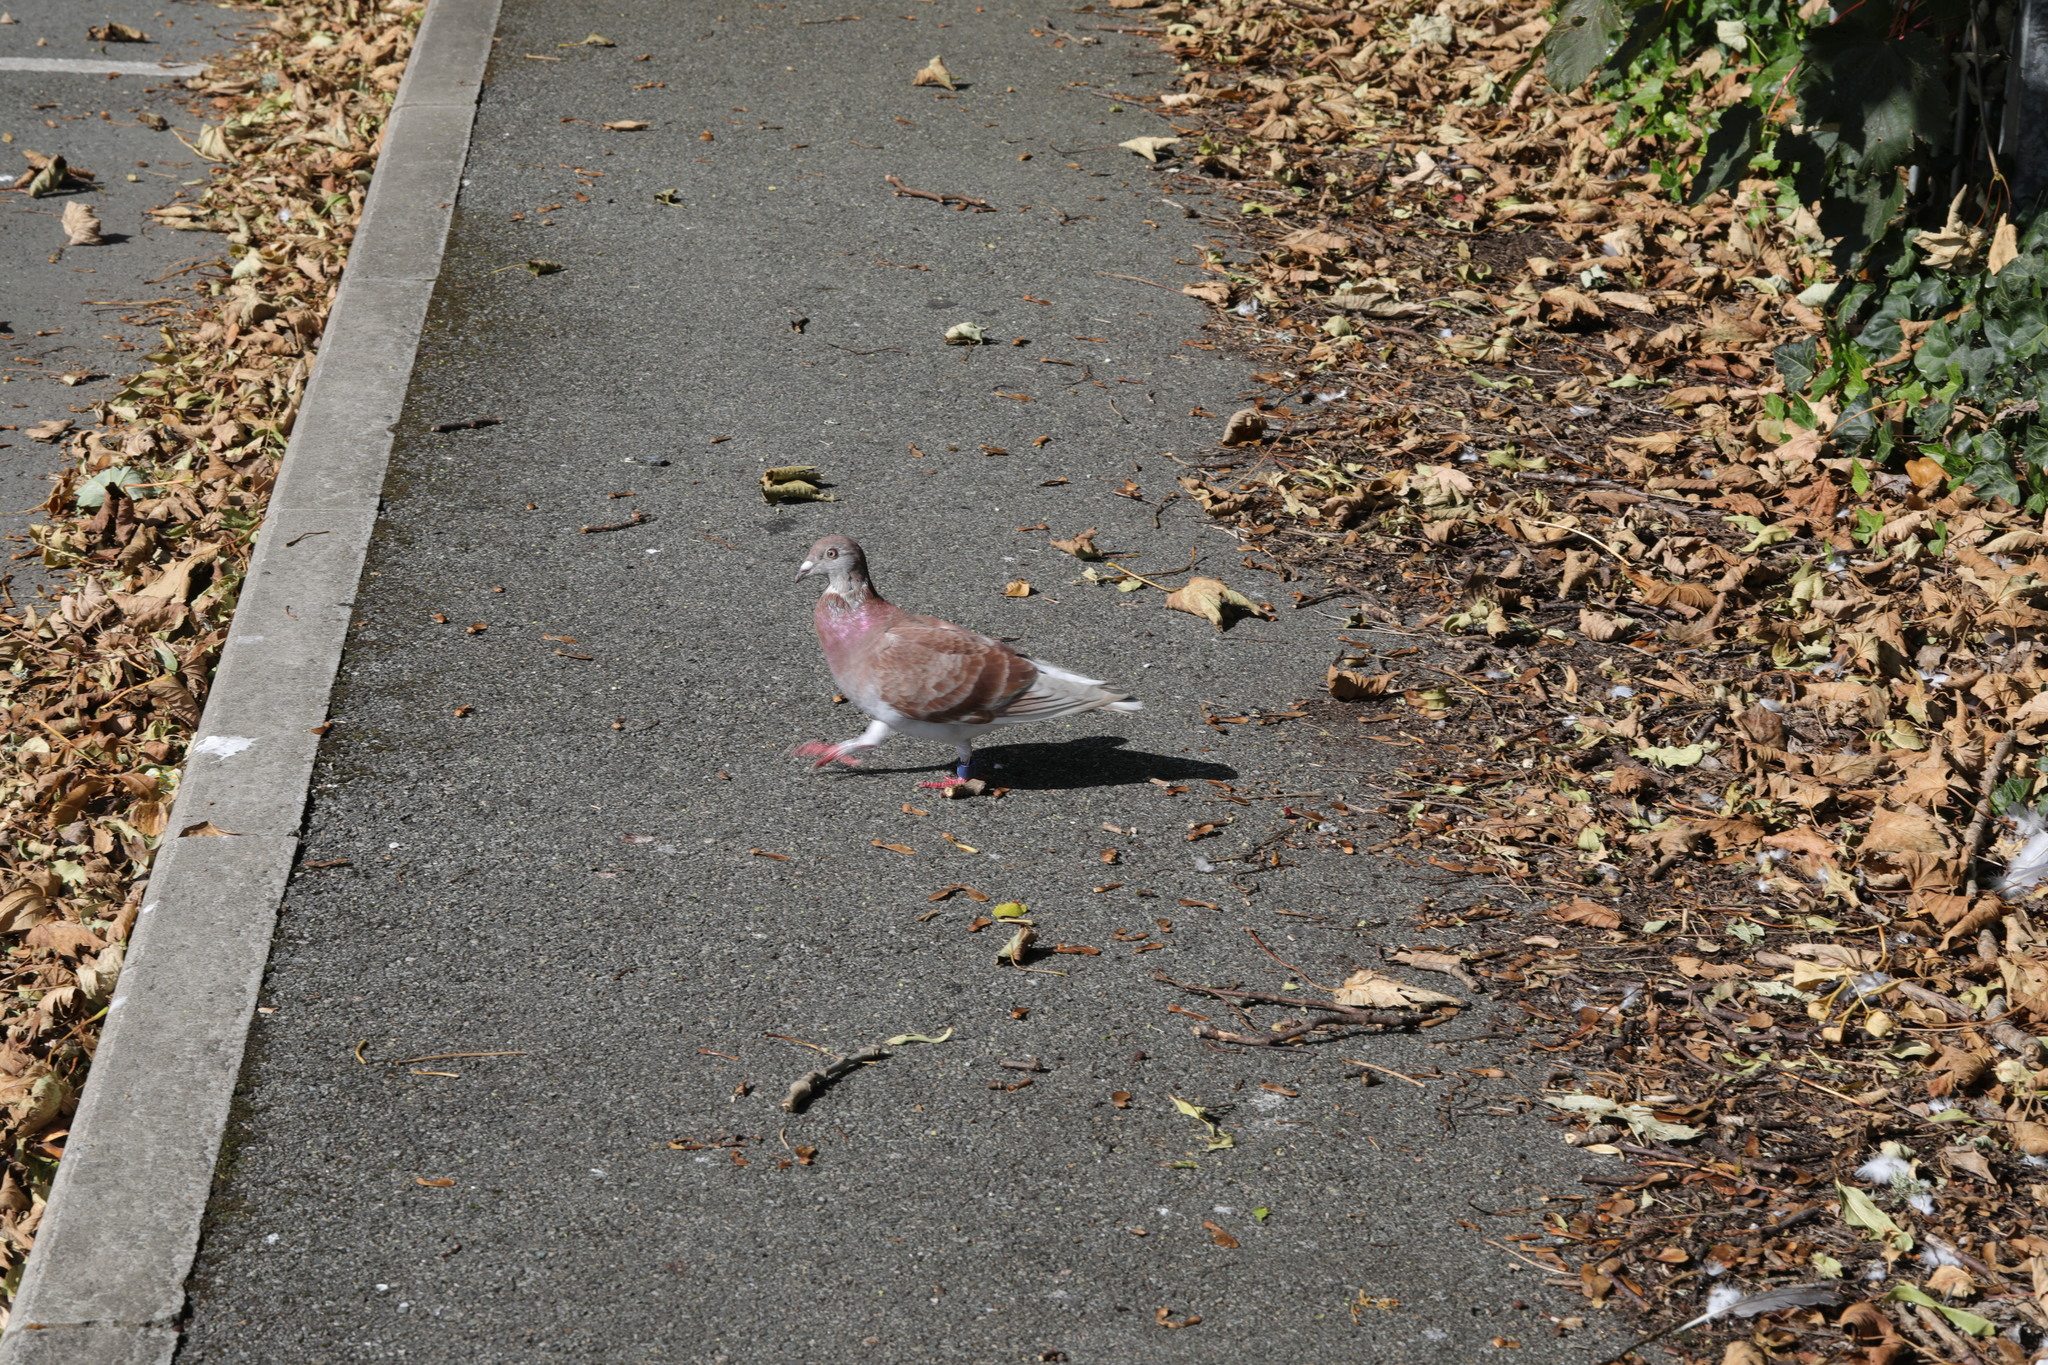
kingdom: Animalia
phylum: Chordata
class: Aves
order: Columbiformes
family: Columbidae
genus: Columba
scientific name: Columba livia
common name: Rock pigeon
